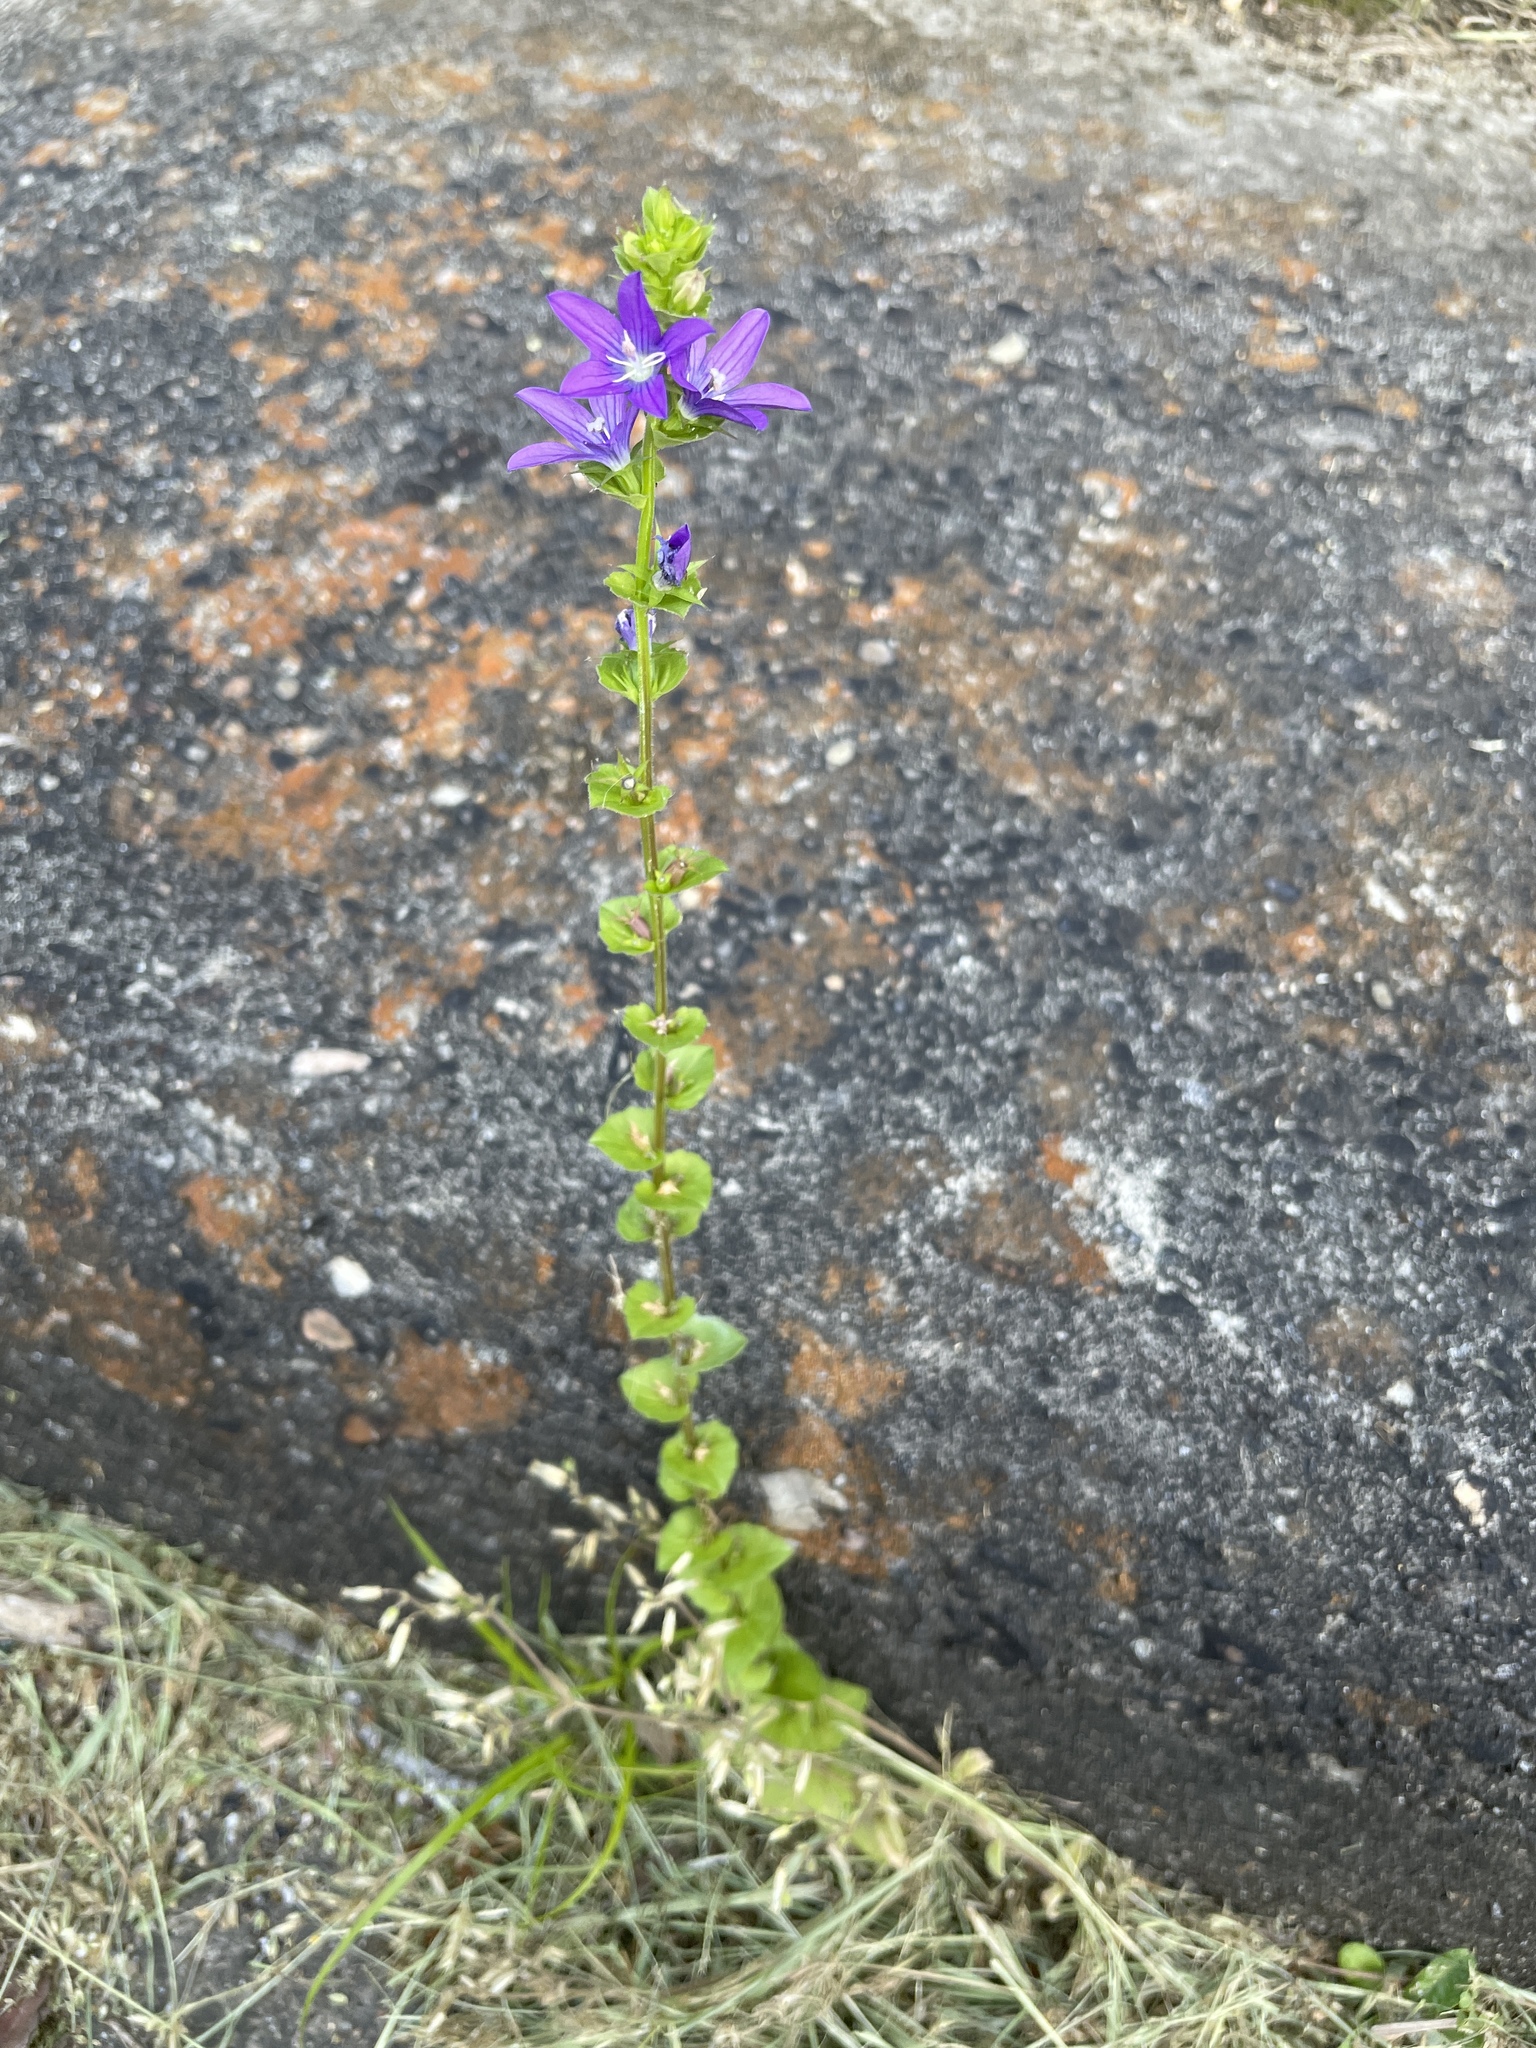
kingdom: Plantae
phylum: Tracheophyta
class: Magnoliopsida
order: Asterales
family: Campanulaceae
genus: Triodanis
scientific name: Triodanis perfoliata
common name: Clasping venus' looking-glass
